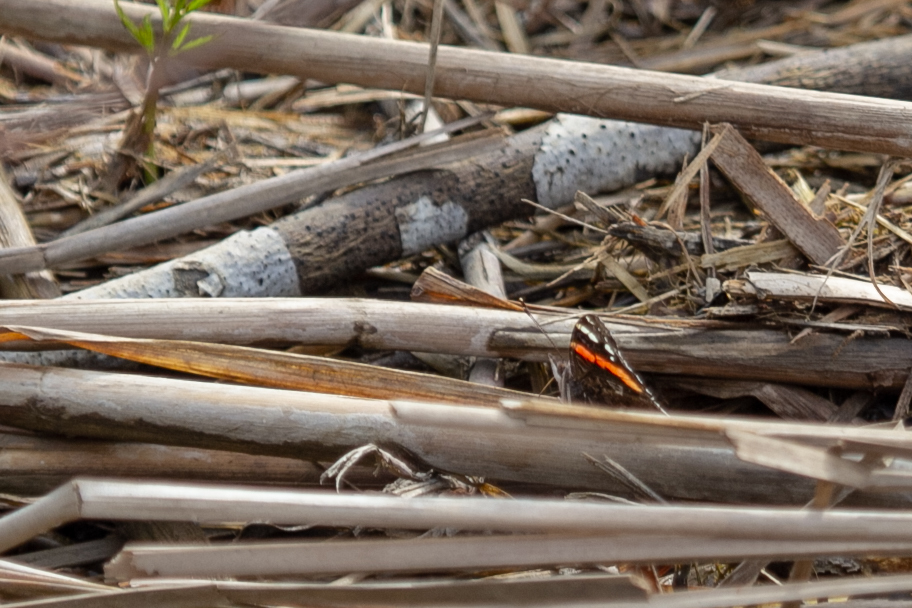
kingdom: Animalia
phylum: Arthropoda
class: Insecta
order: Lepidoptera
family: Nymphalidae
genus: Vanessa
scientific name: Vanessa atalanta
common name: Red admiral
